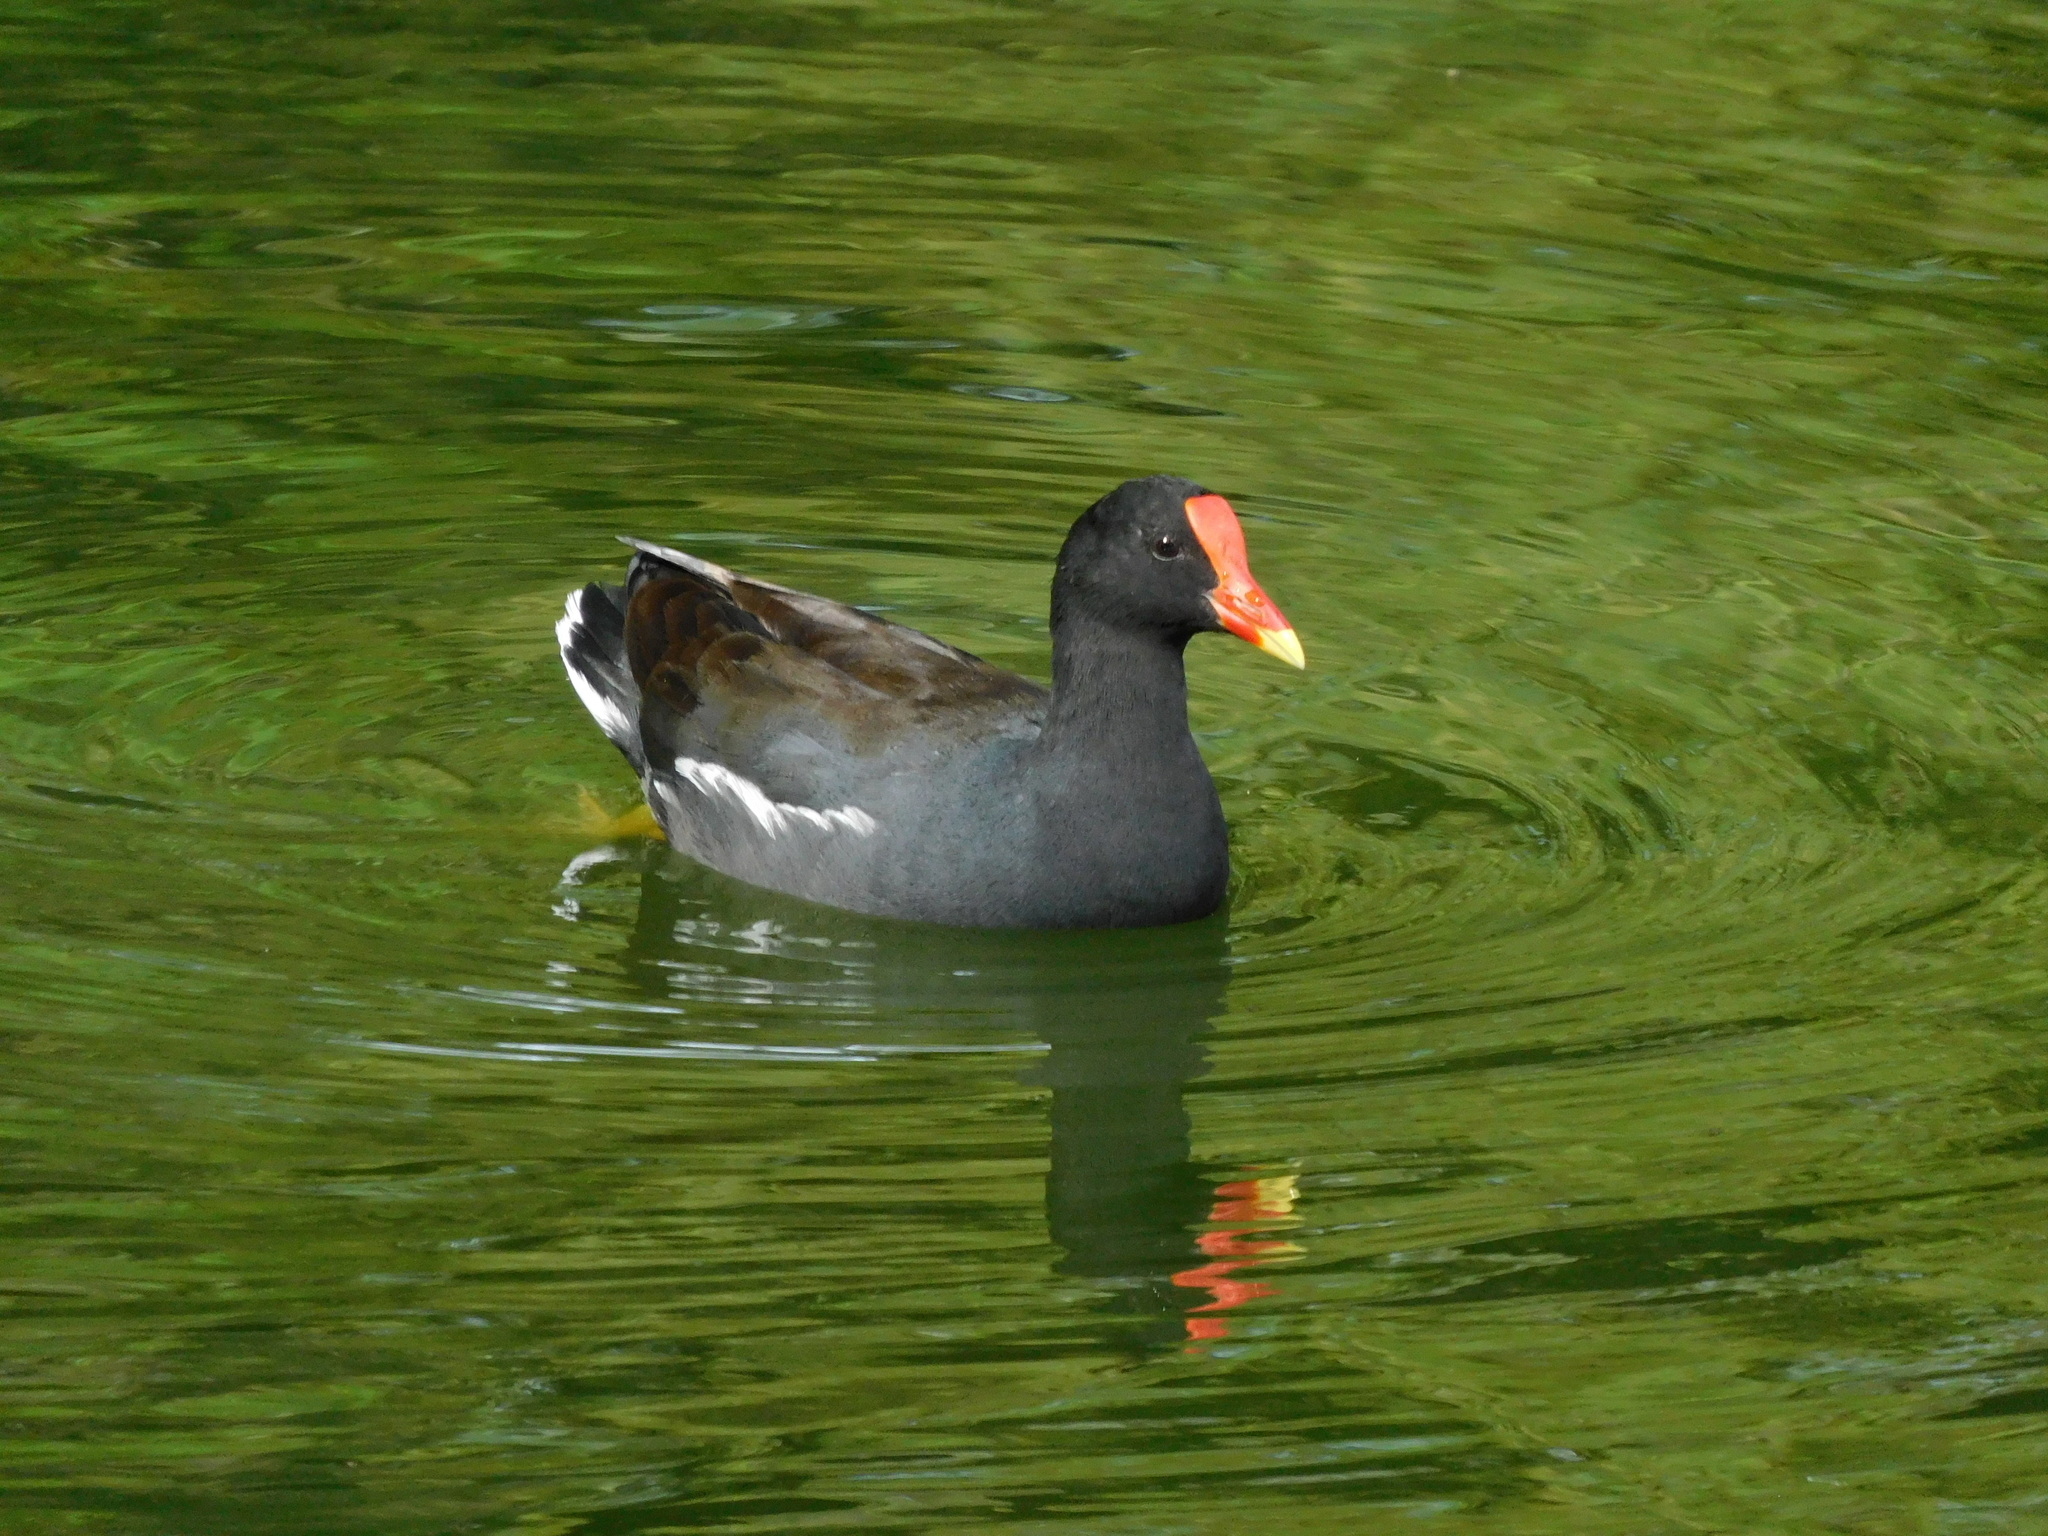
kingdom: Animalia
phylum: Chordata
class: Aves
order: Gruiformes
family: Rallidae
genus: Gallinula
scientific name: Gallinula chloropus
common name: Common moorhen
